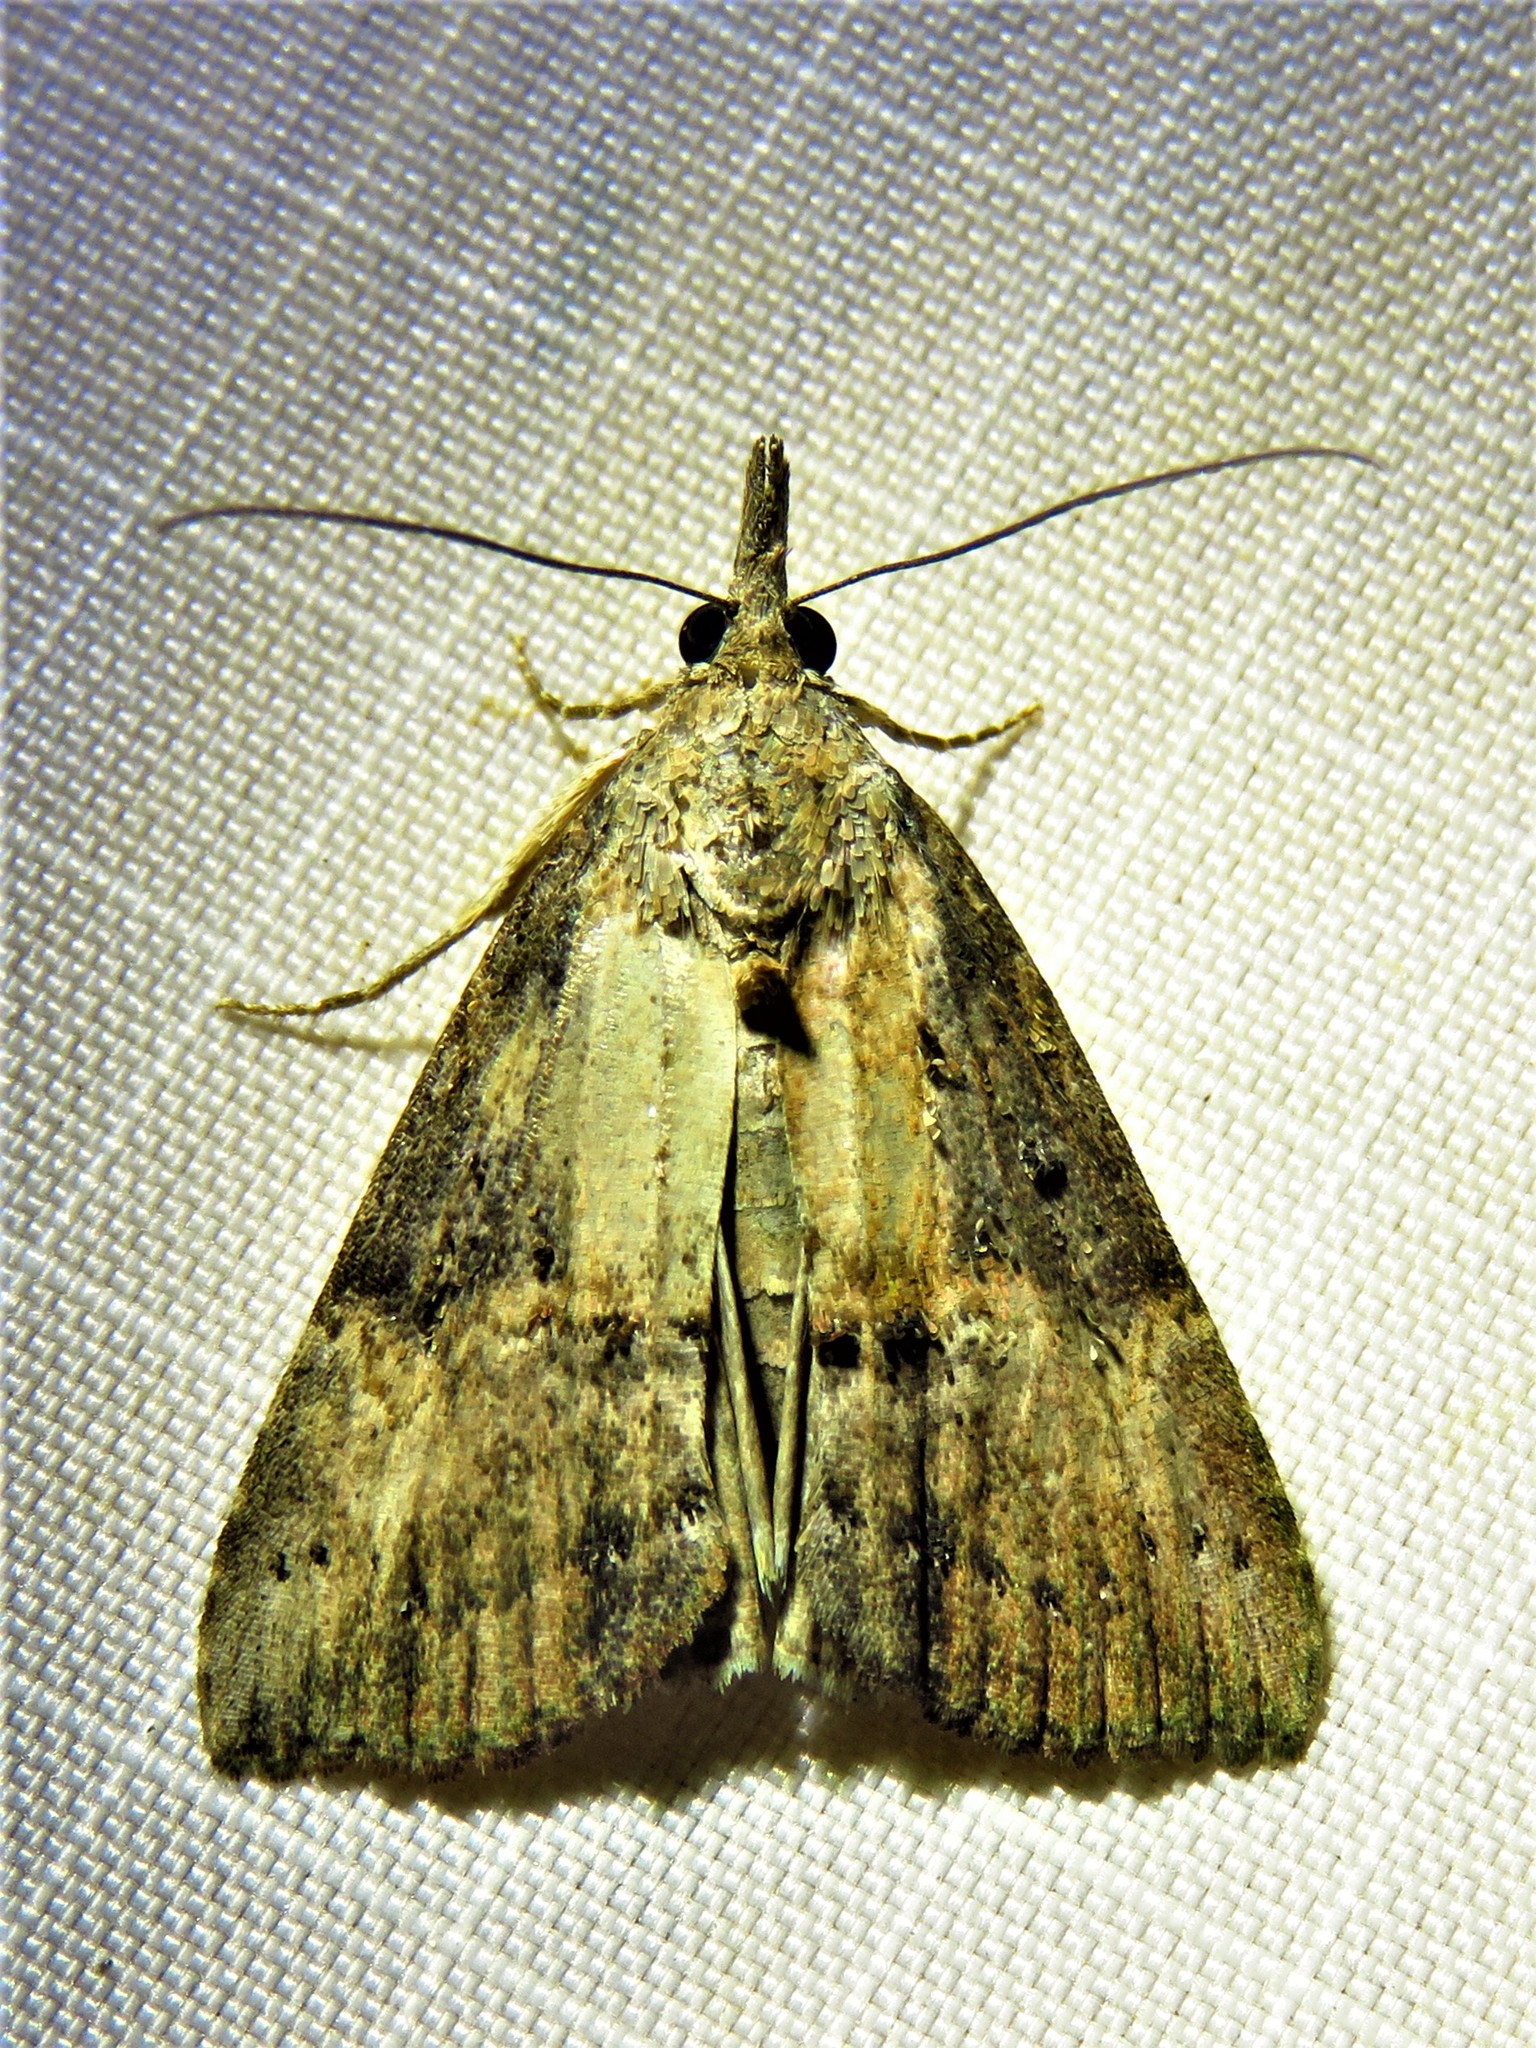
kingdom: Animalia
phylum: Arthropoda
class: Insecta
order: Lepidoptera
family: Erebidae
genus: Hypena
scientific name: Hypena scabra
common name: Green cloverworm
